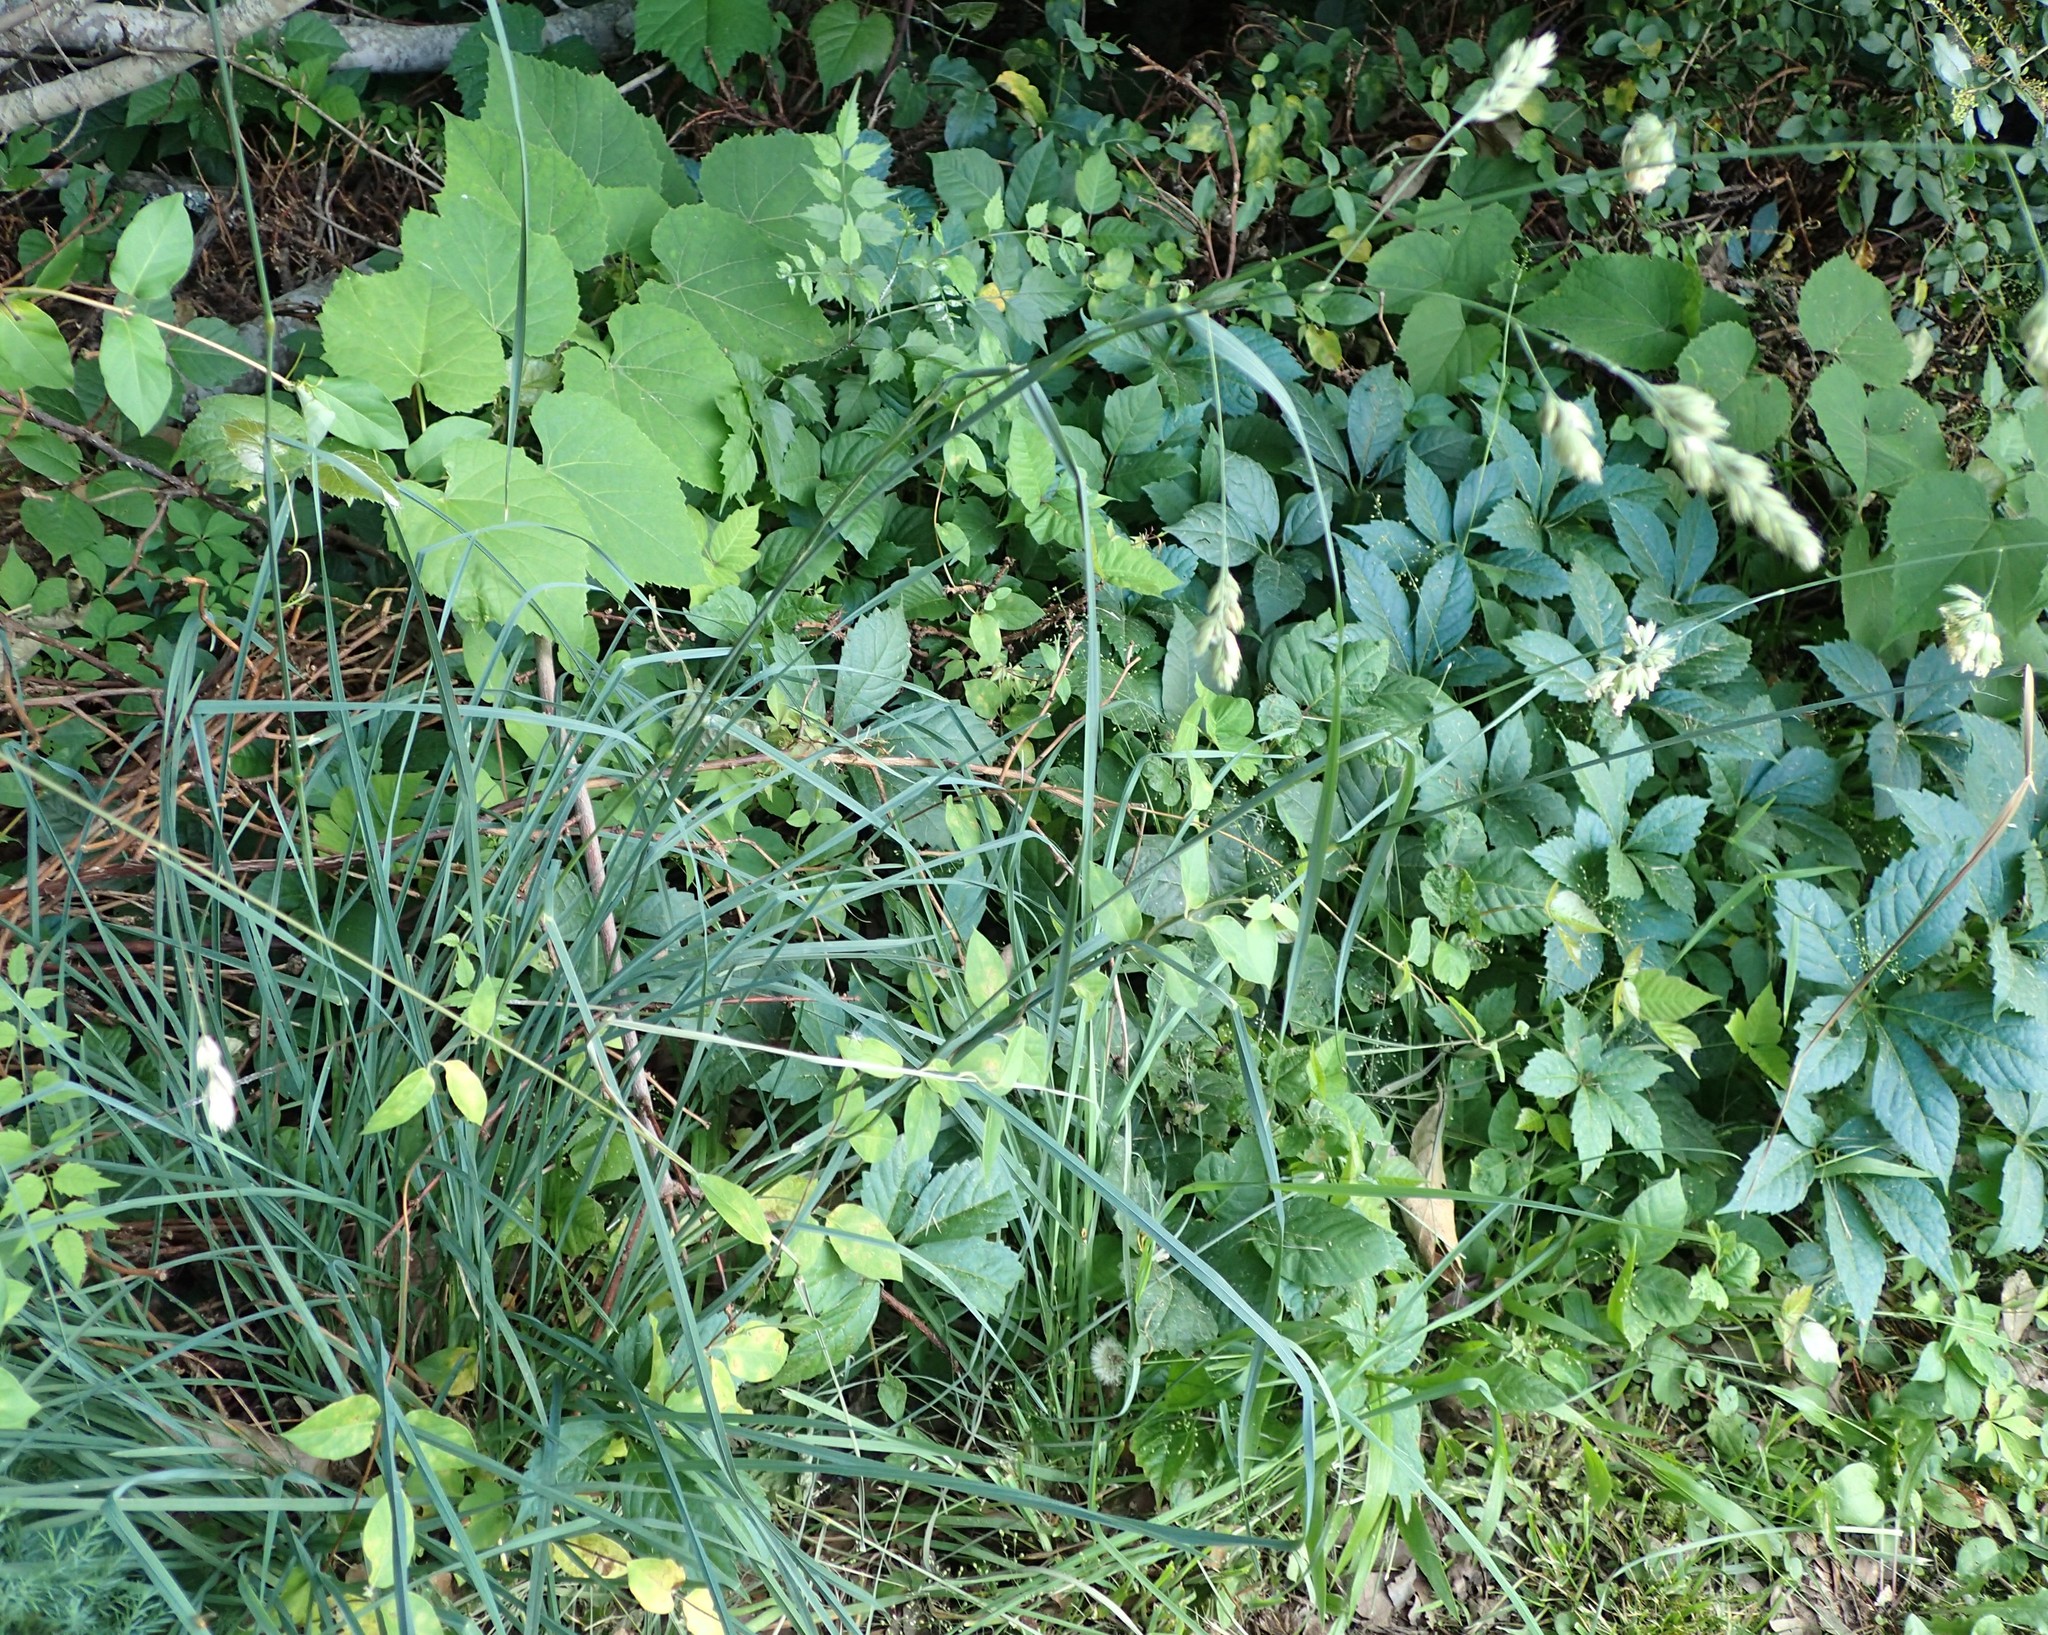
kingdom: Plantae
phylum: Tracheophyta
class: Liliopsida
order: Poales
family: Poaceae
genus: Dactylis
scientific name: Dactylis glomerata
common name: Orchardgrass
